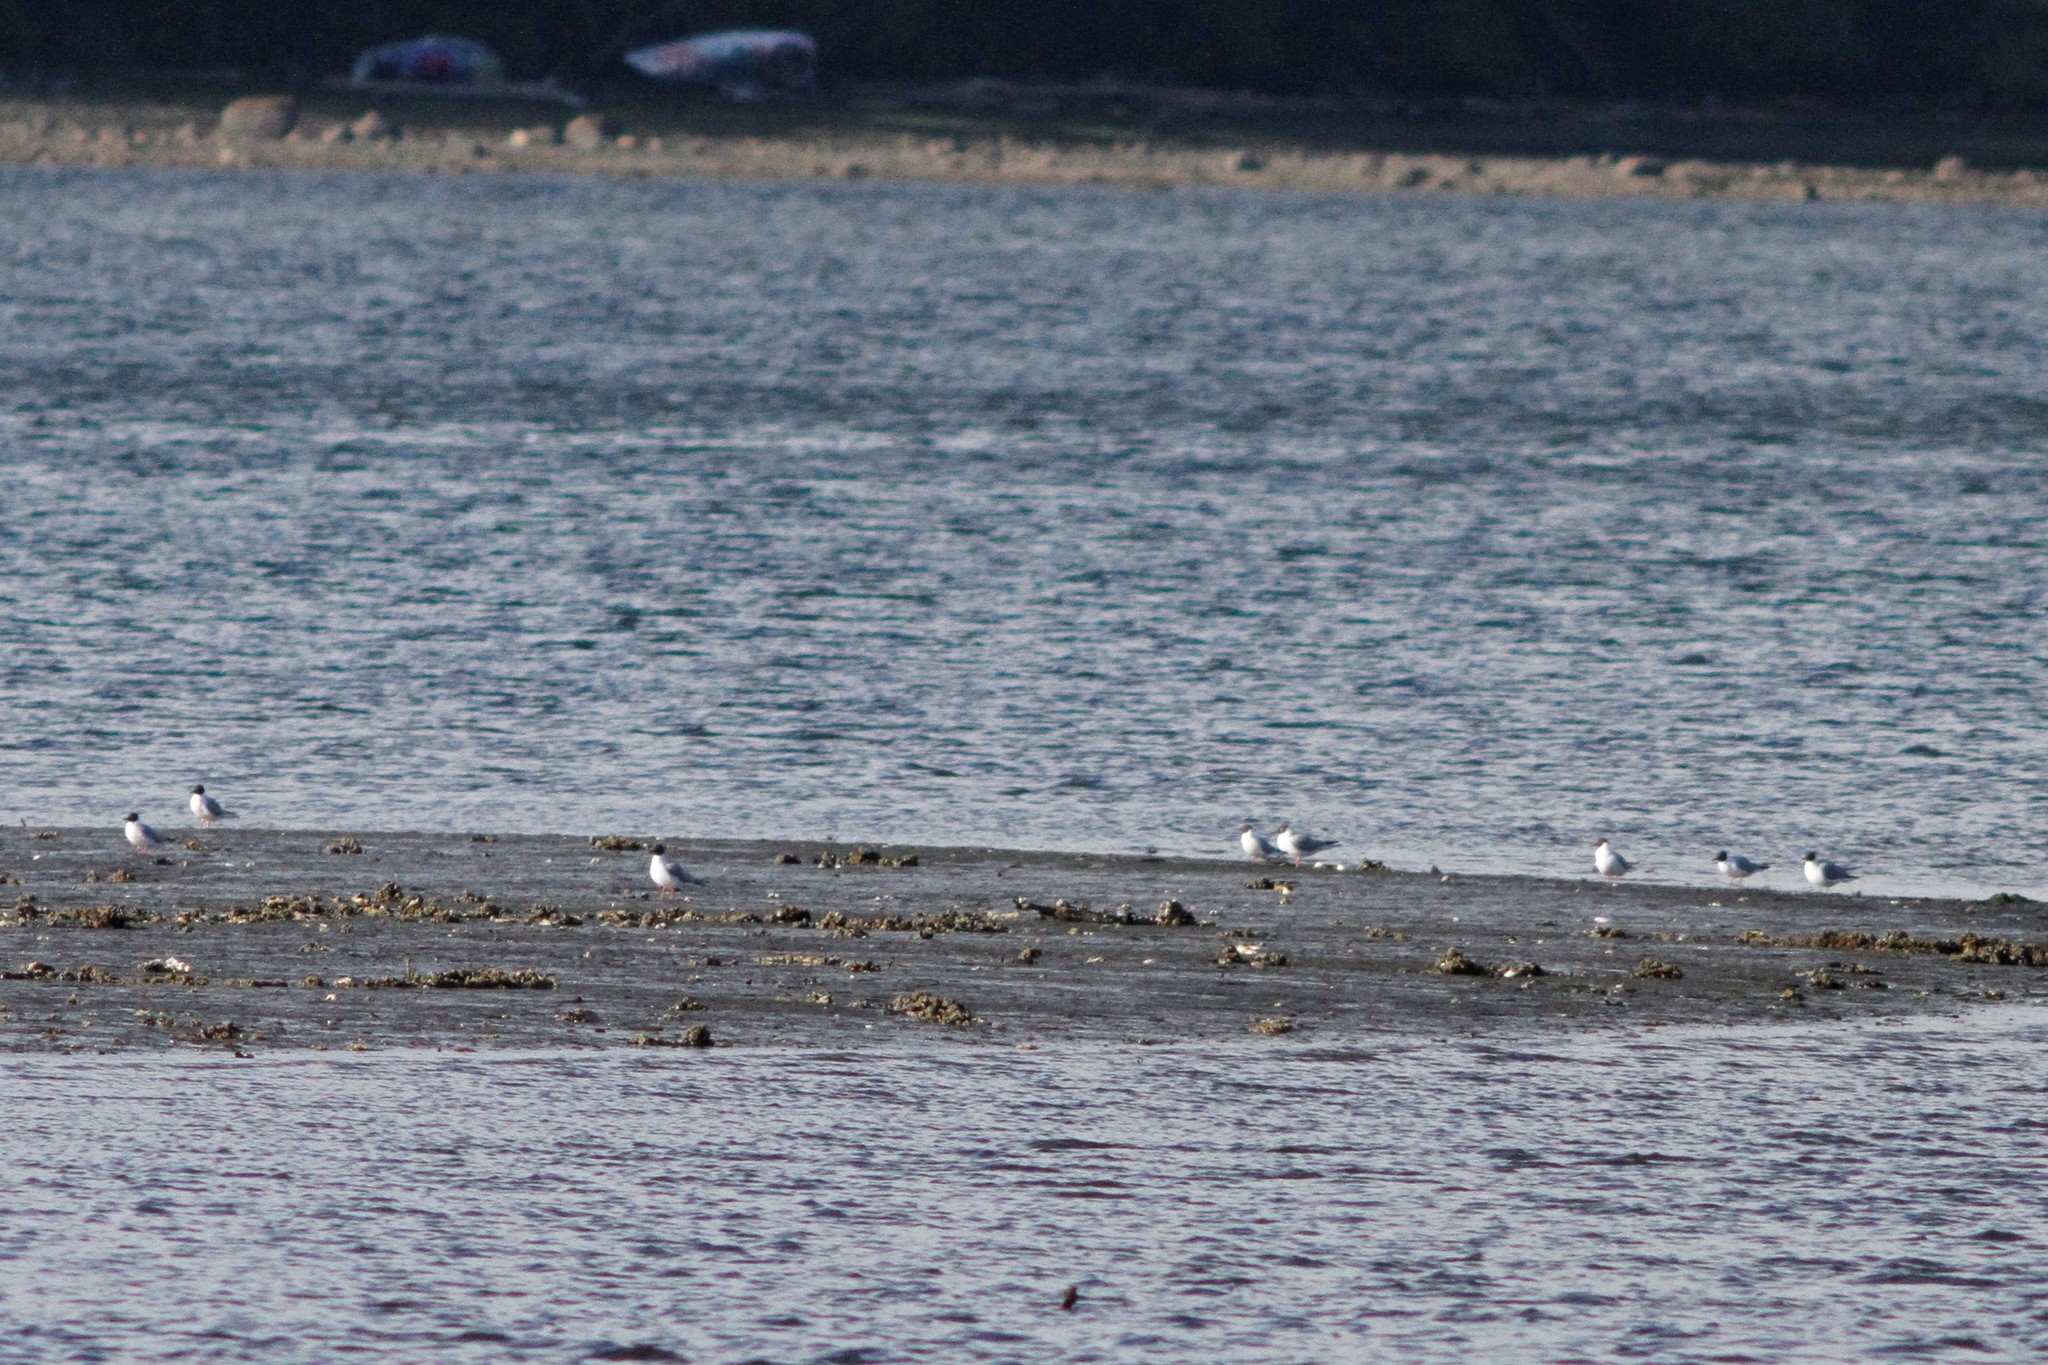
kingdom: Animalia
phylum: Chordata
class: Aves
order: Charadriiformes
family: Laridae
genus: Chroicocephalus
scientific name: Chroicocephalus philadelphia
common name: Bonaparte's gull
